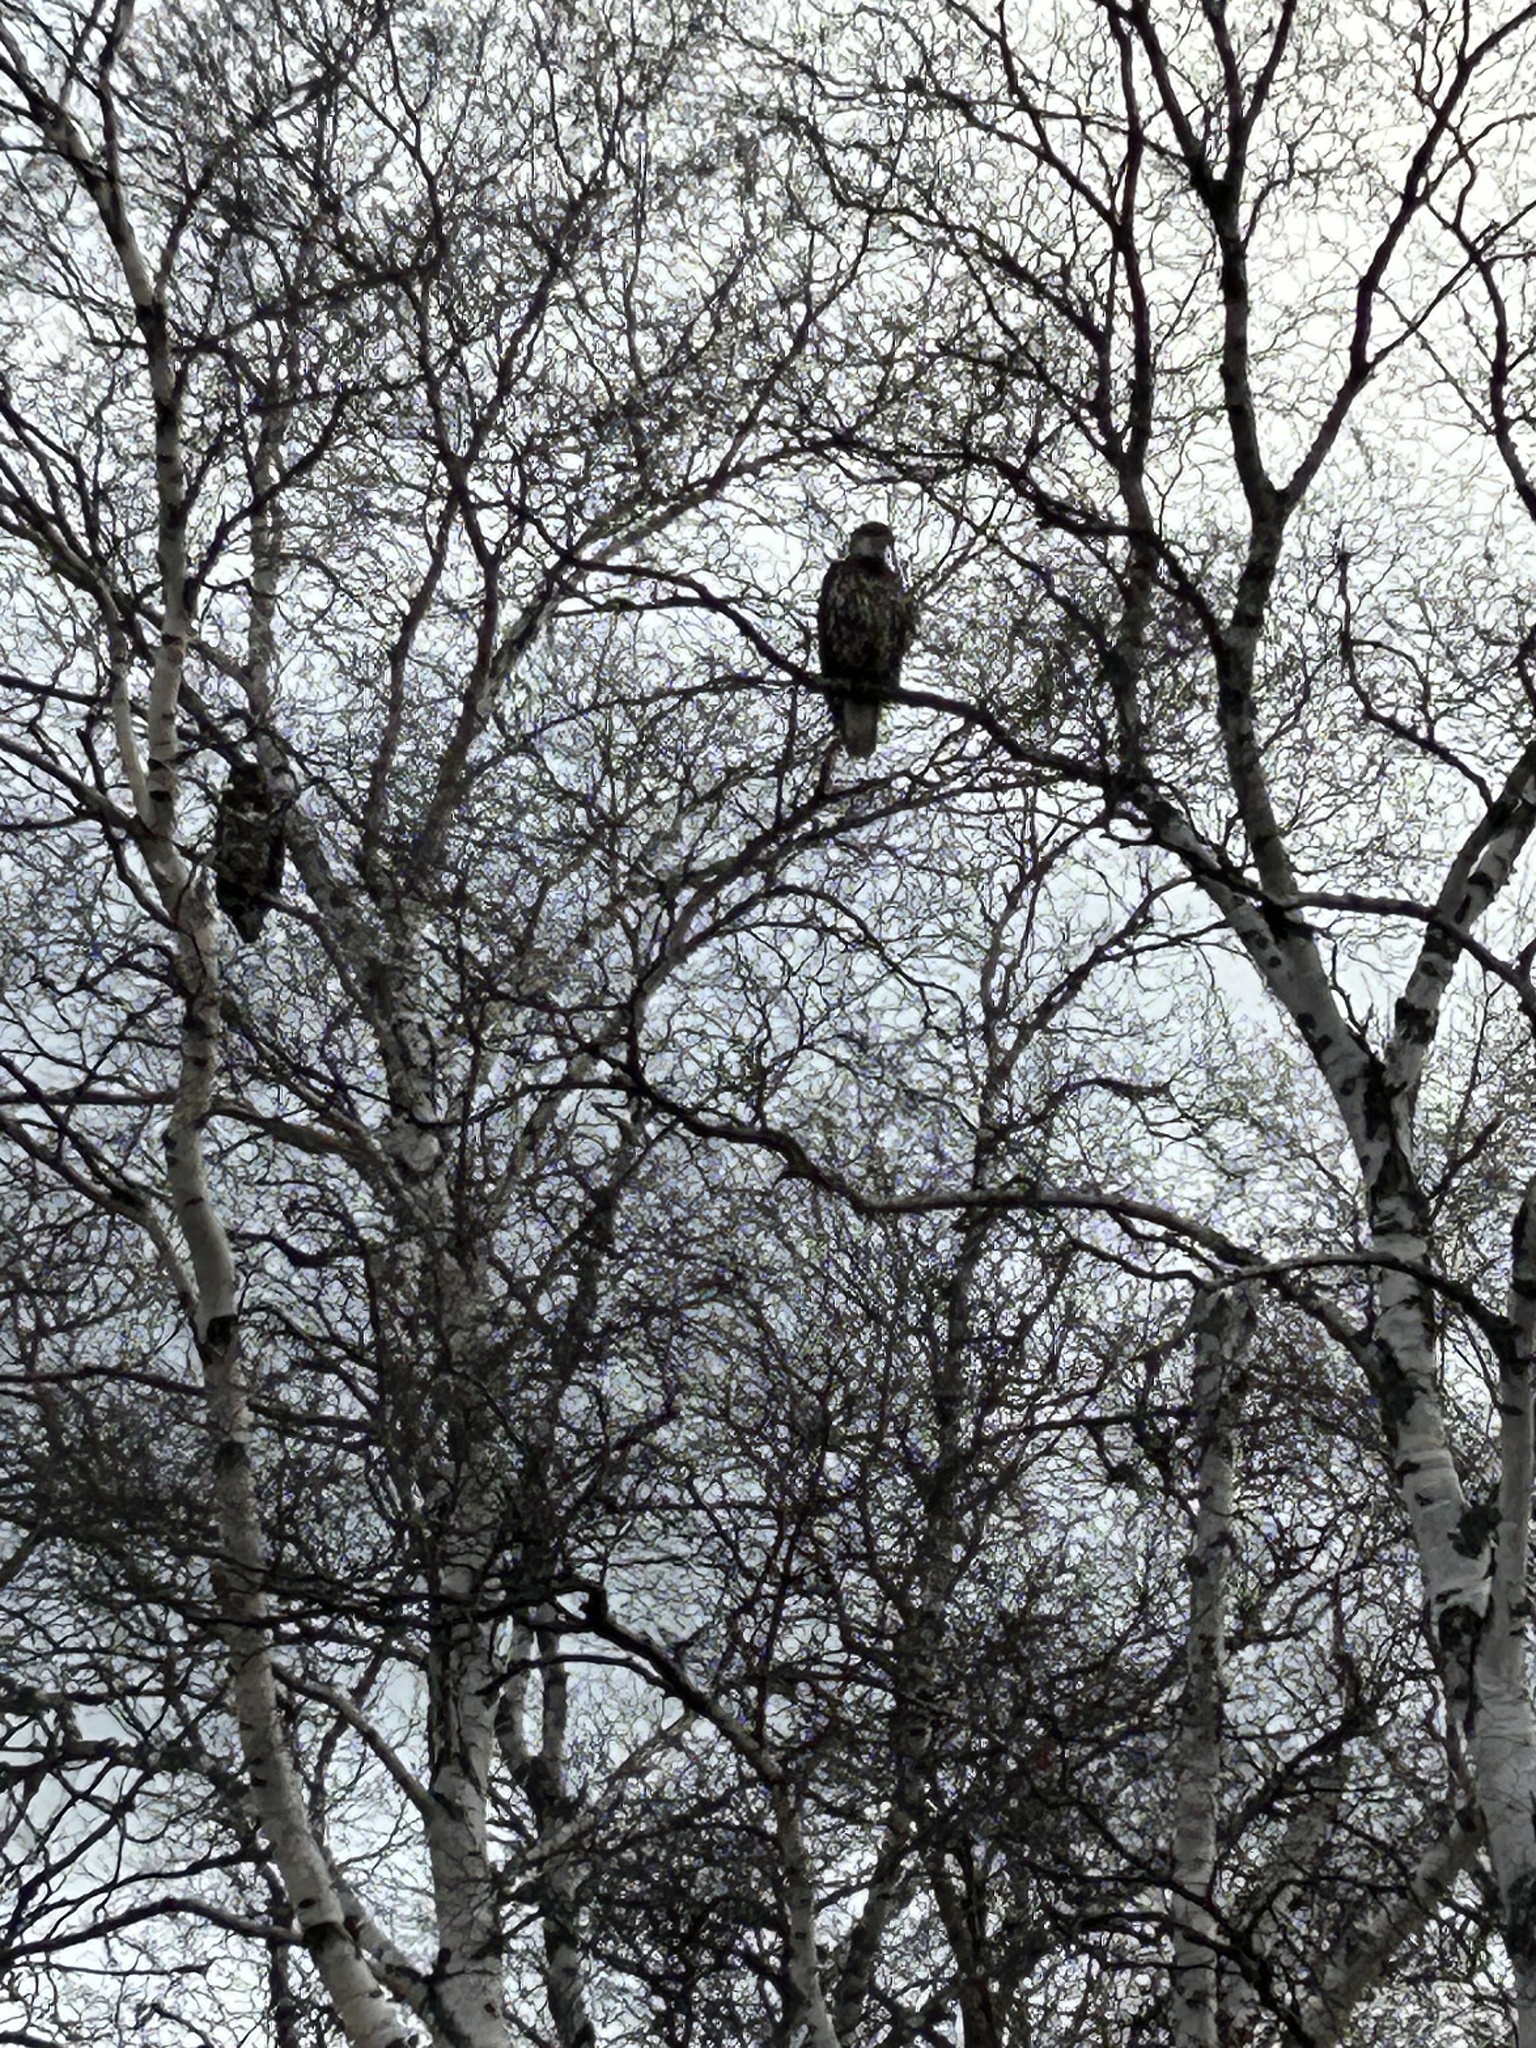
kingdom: Animalia
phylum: Chordata
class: Aves
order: Accipitriformes
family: Accipitridae
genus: Haliaeetus
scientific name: Haliaeetus leucocephalus
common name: Bald eagle
